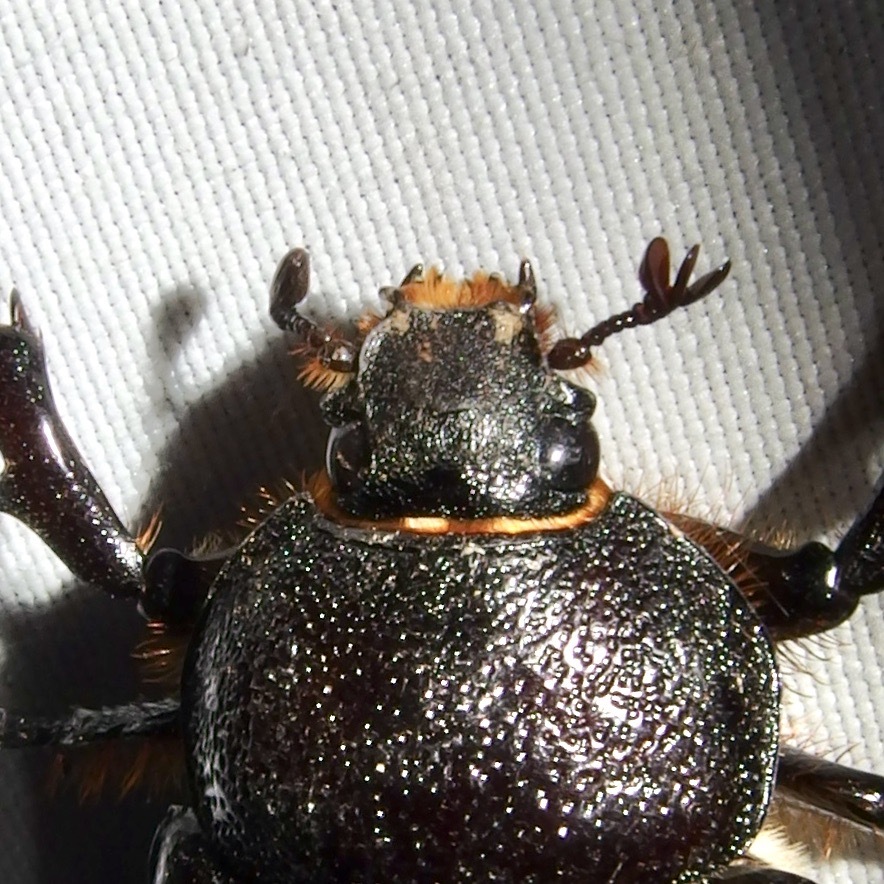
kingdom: Animalia
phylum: Arthropoda
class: Insecta
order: Coleoptera
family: Scarabaeidae
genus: Megasoma
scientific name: Megasoma punctulatum
